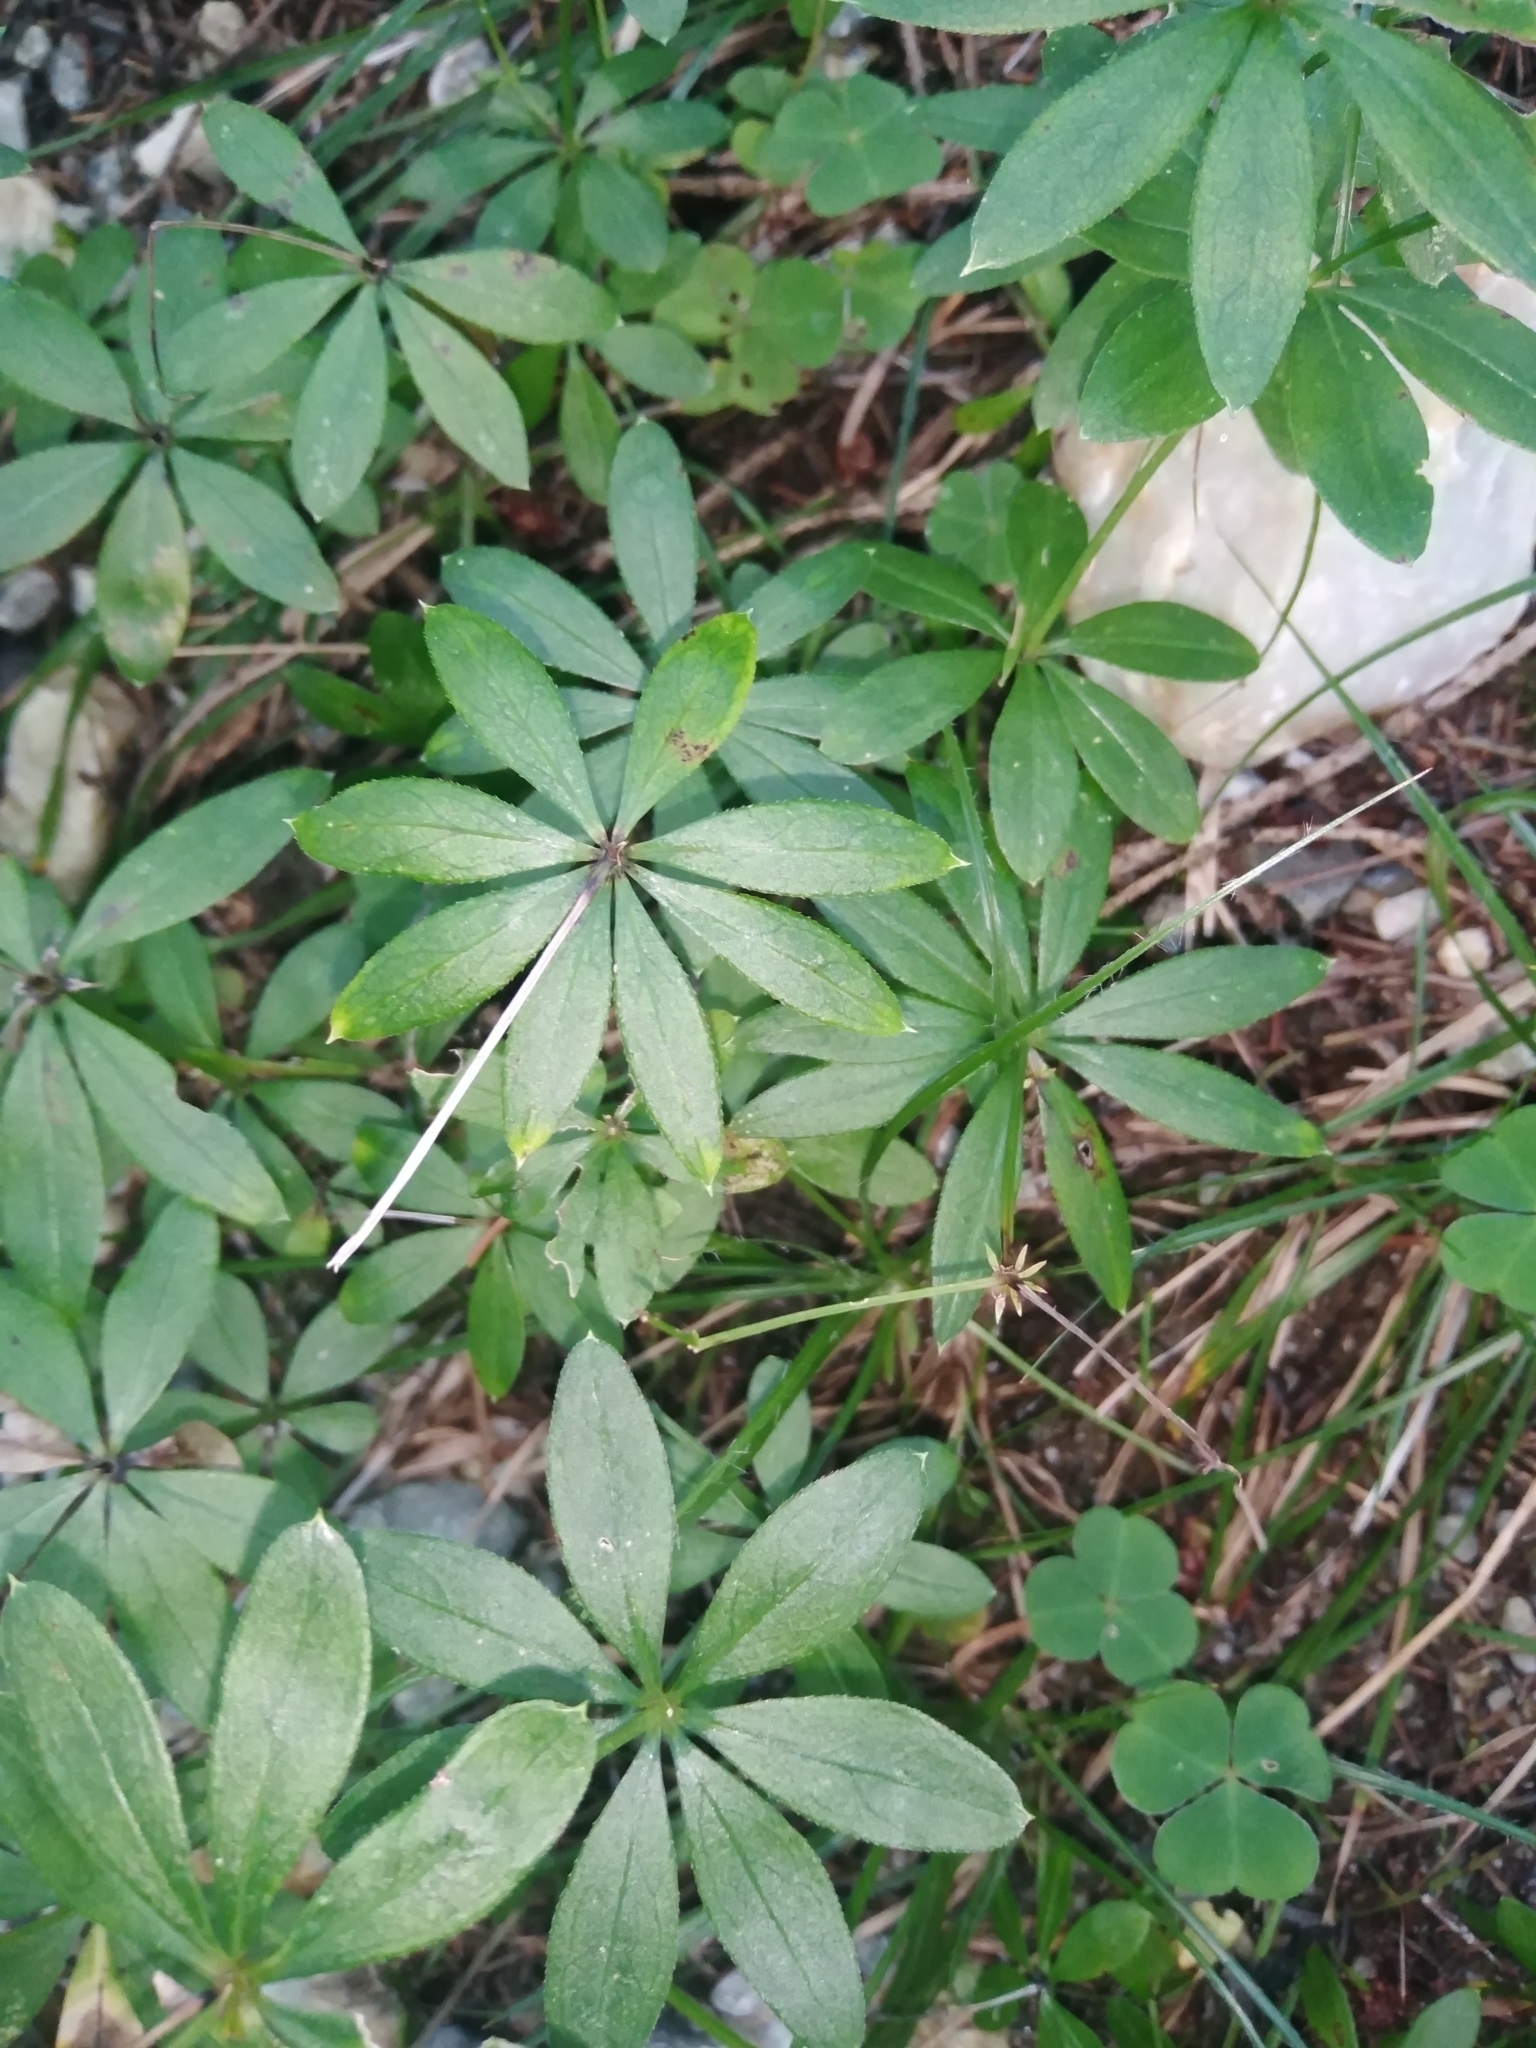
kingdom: Plantae
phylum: Tracheophyta
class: Magnoliopsida
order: Gentianales
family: Rubiaceae
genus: Galium
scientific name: Galium odoratum
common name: Sweet woodruff
